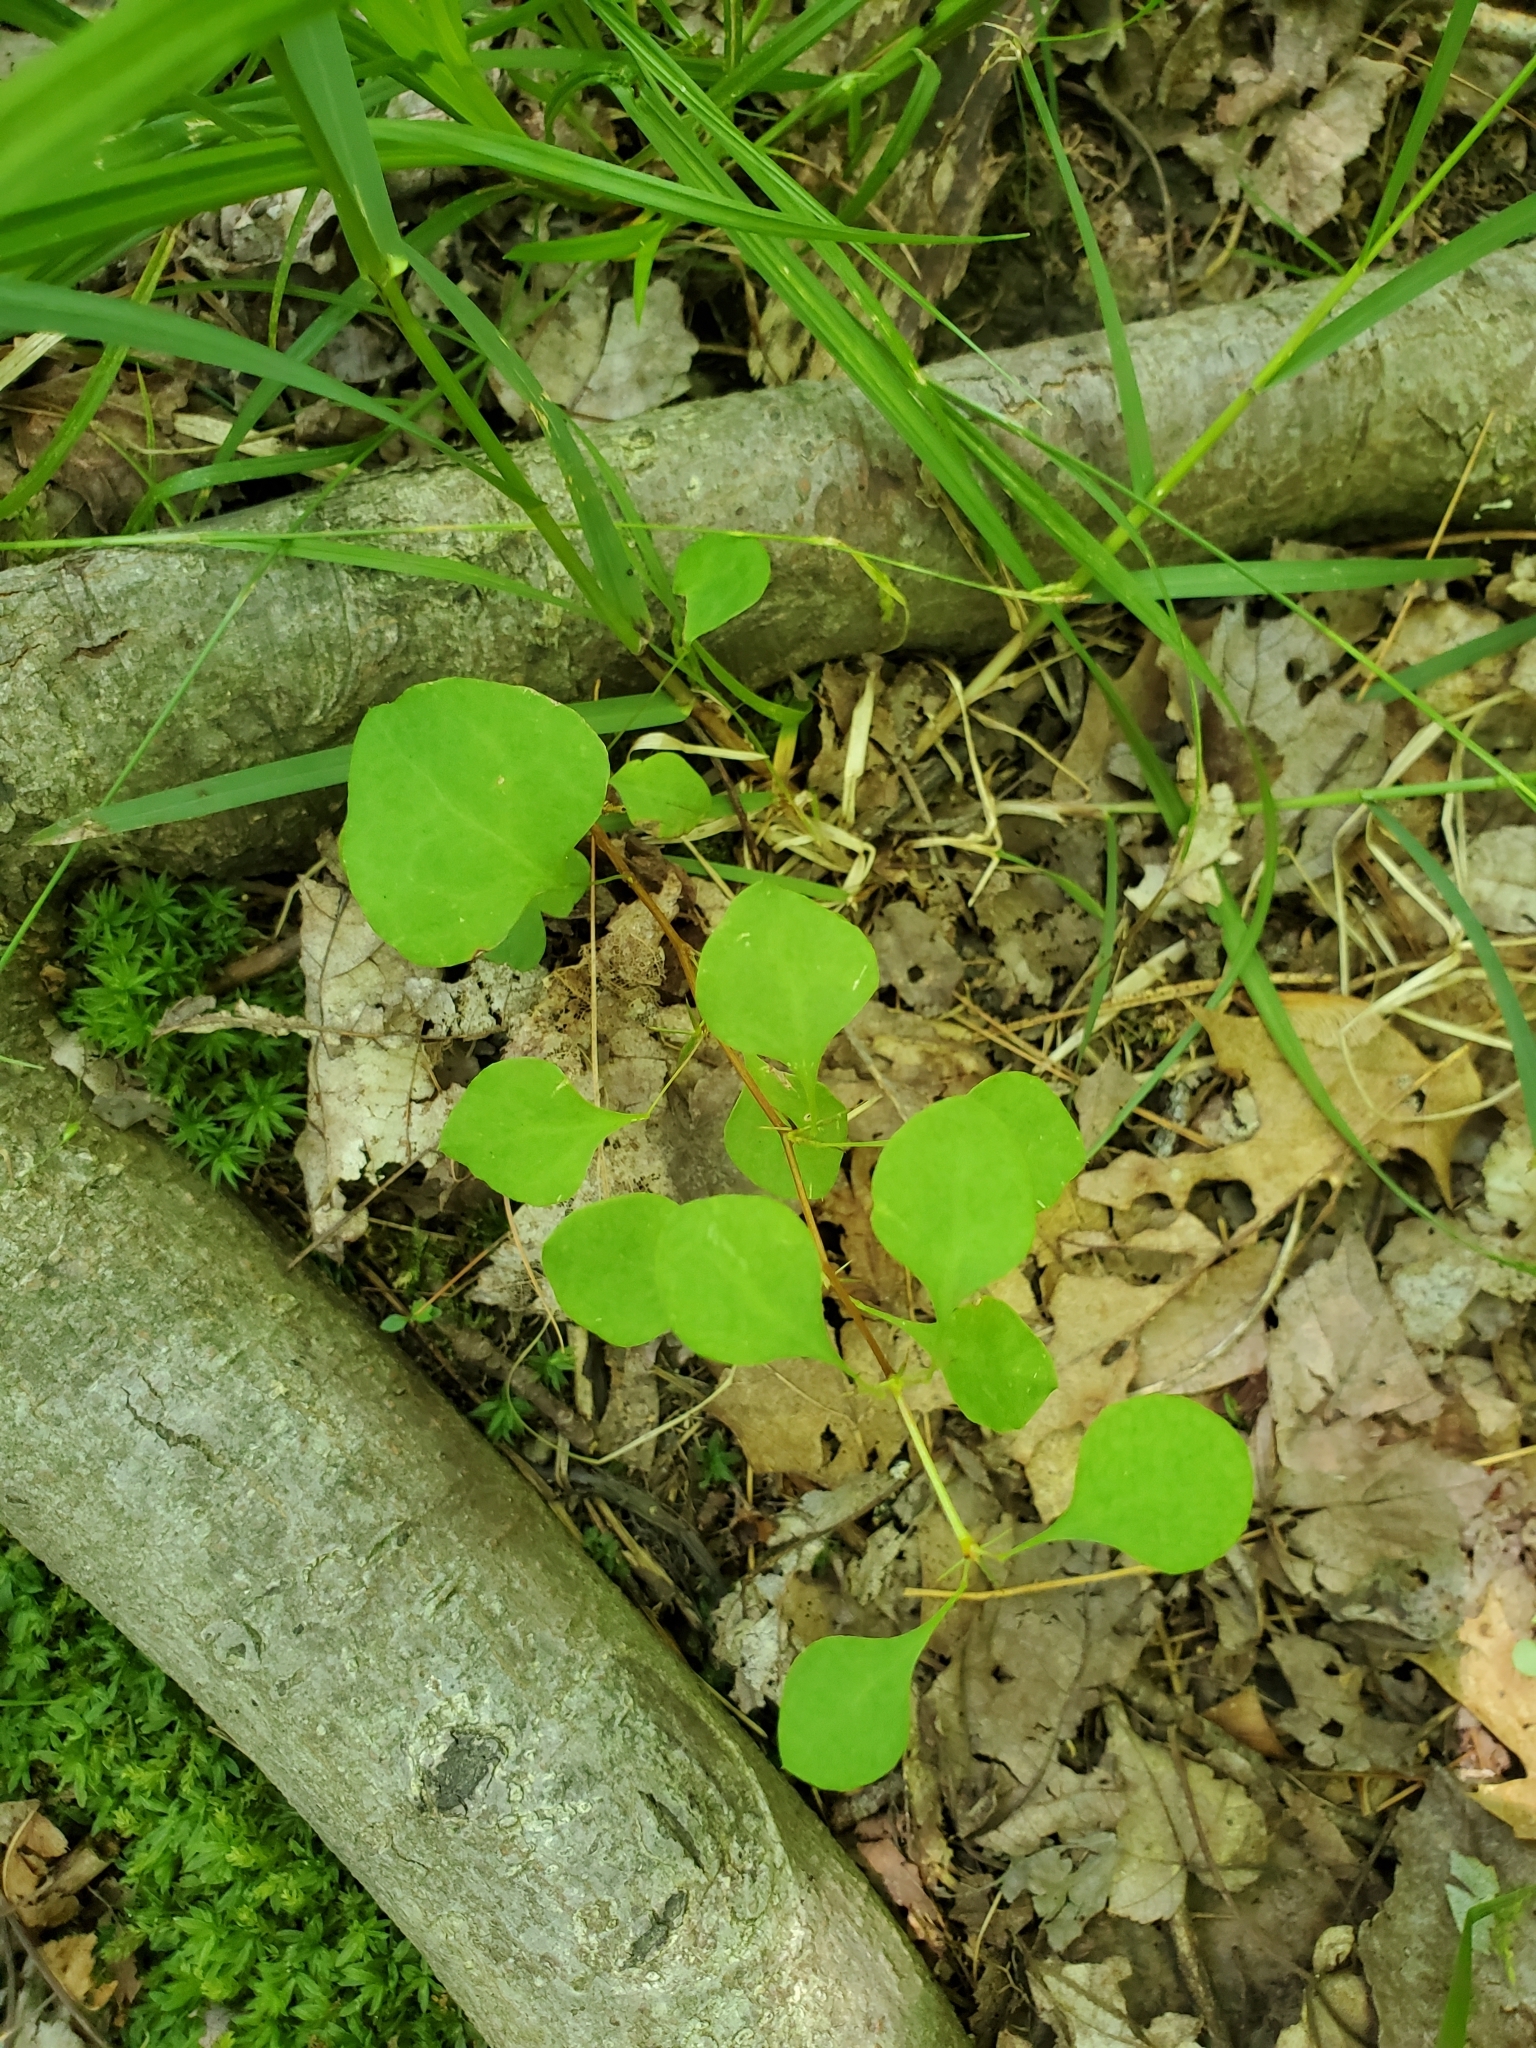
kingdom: Plantae
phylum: Tracheophyta
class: Magnoliopsida
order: Ranunculales
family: Berberidaceae
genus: Berberis
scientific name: Berberis thunbergii
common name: Japanese barberry
